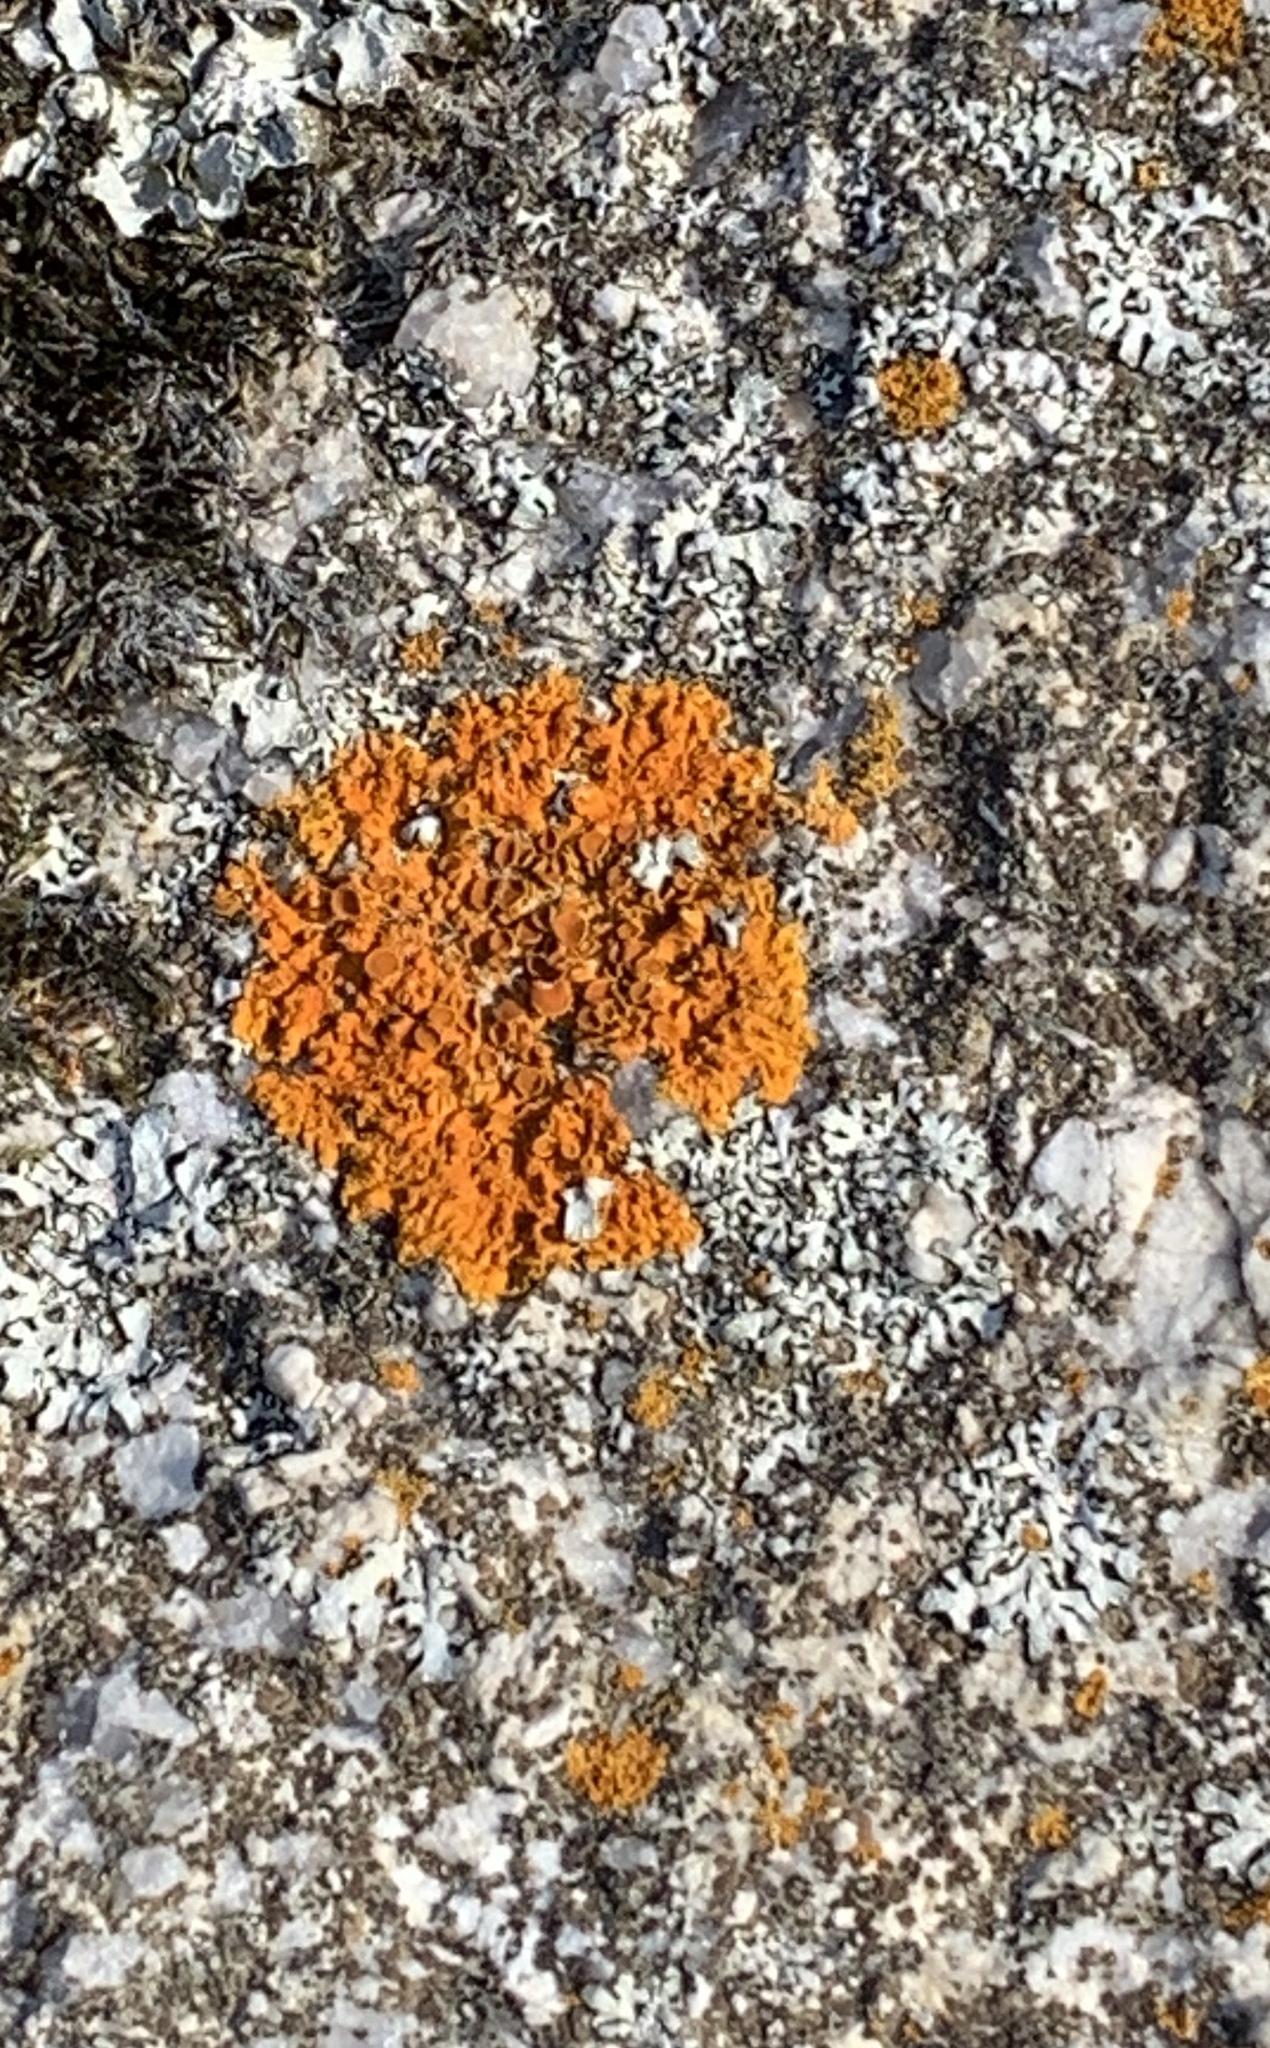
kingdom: Fungi
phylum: Ascomycota
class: Lecanoromycetes
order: Teloschistales
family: Teloschistaceae
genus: Xanthoria
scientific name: Xanthoria elegans
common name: Elegant sunburst lichen
